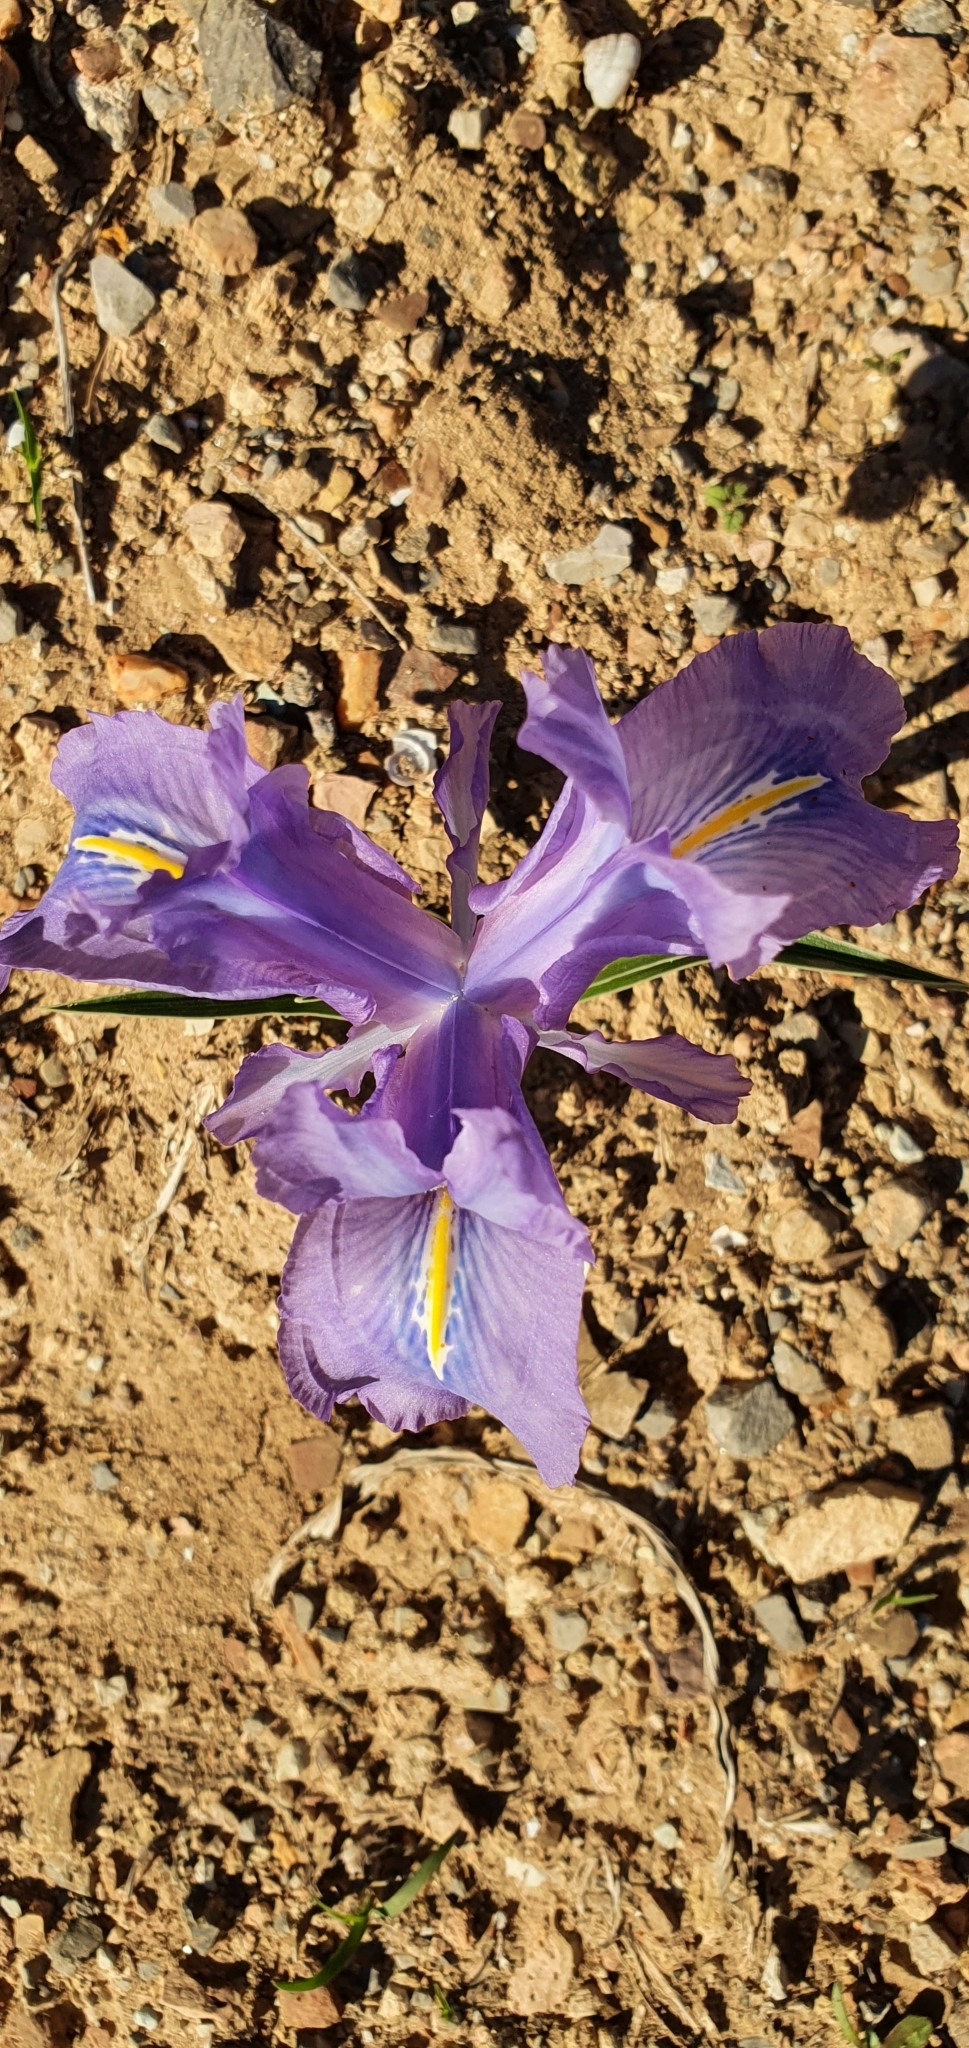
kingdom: Plantae
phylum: Tracheophyta
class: Liliopsida
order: Asparagales
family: Iridaceae
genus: Iris
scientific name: Iris planifolia
